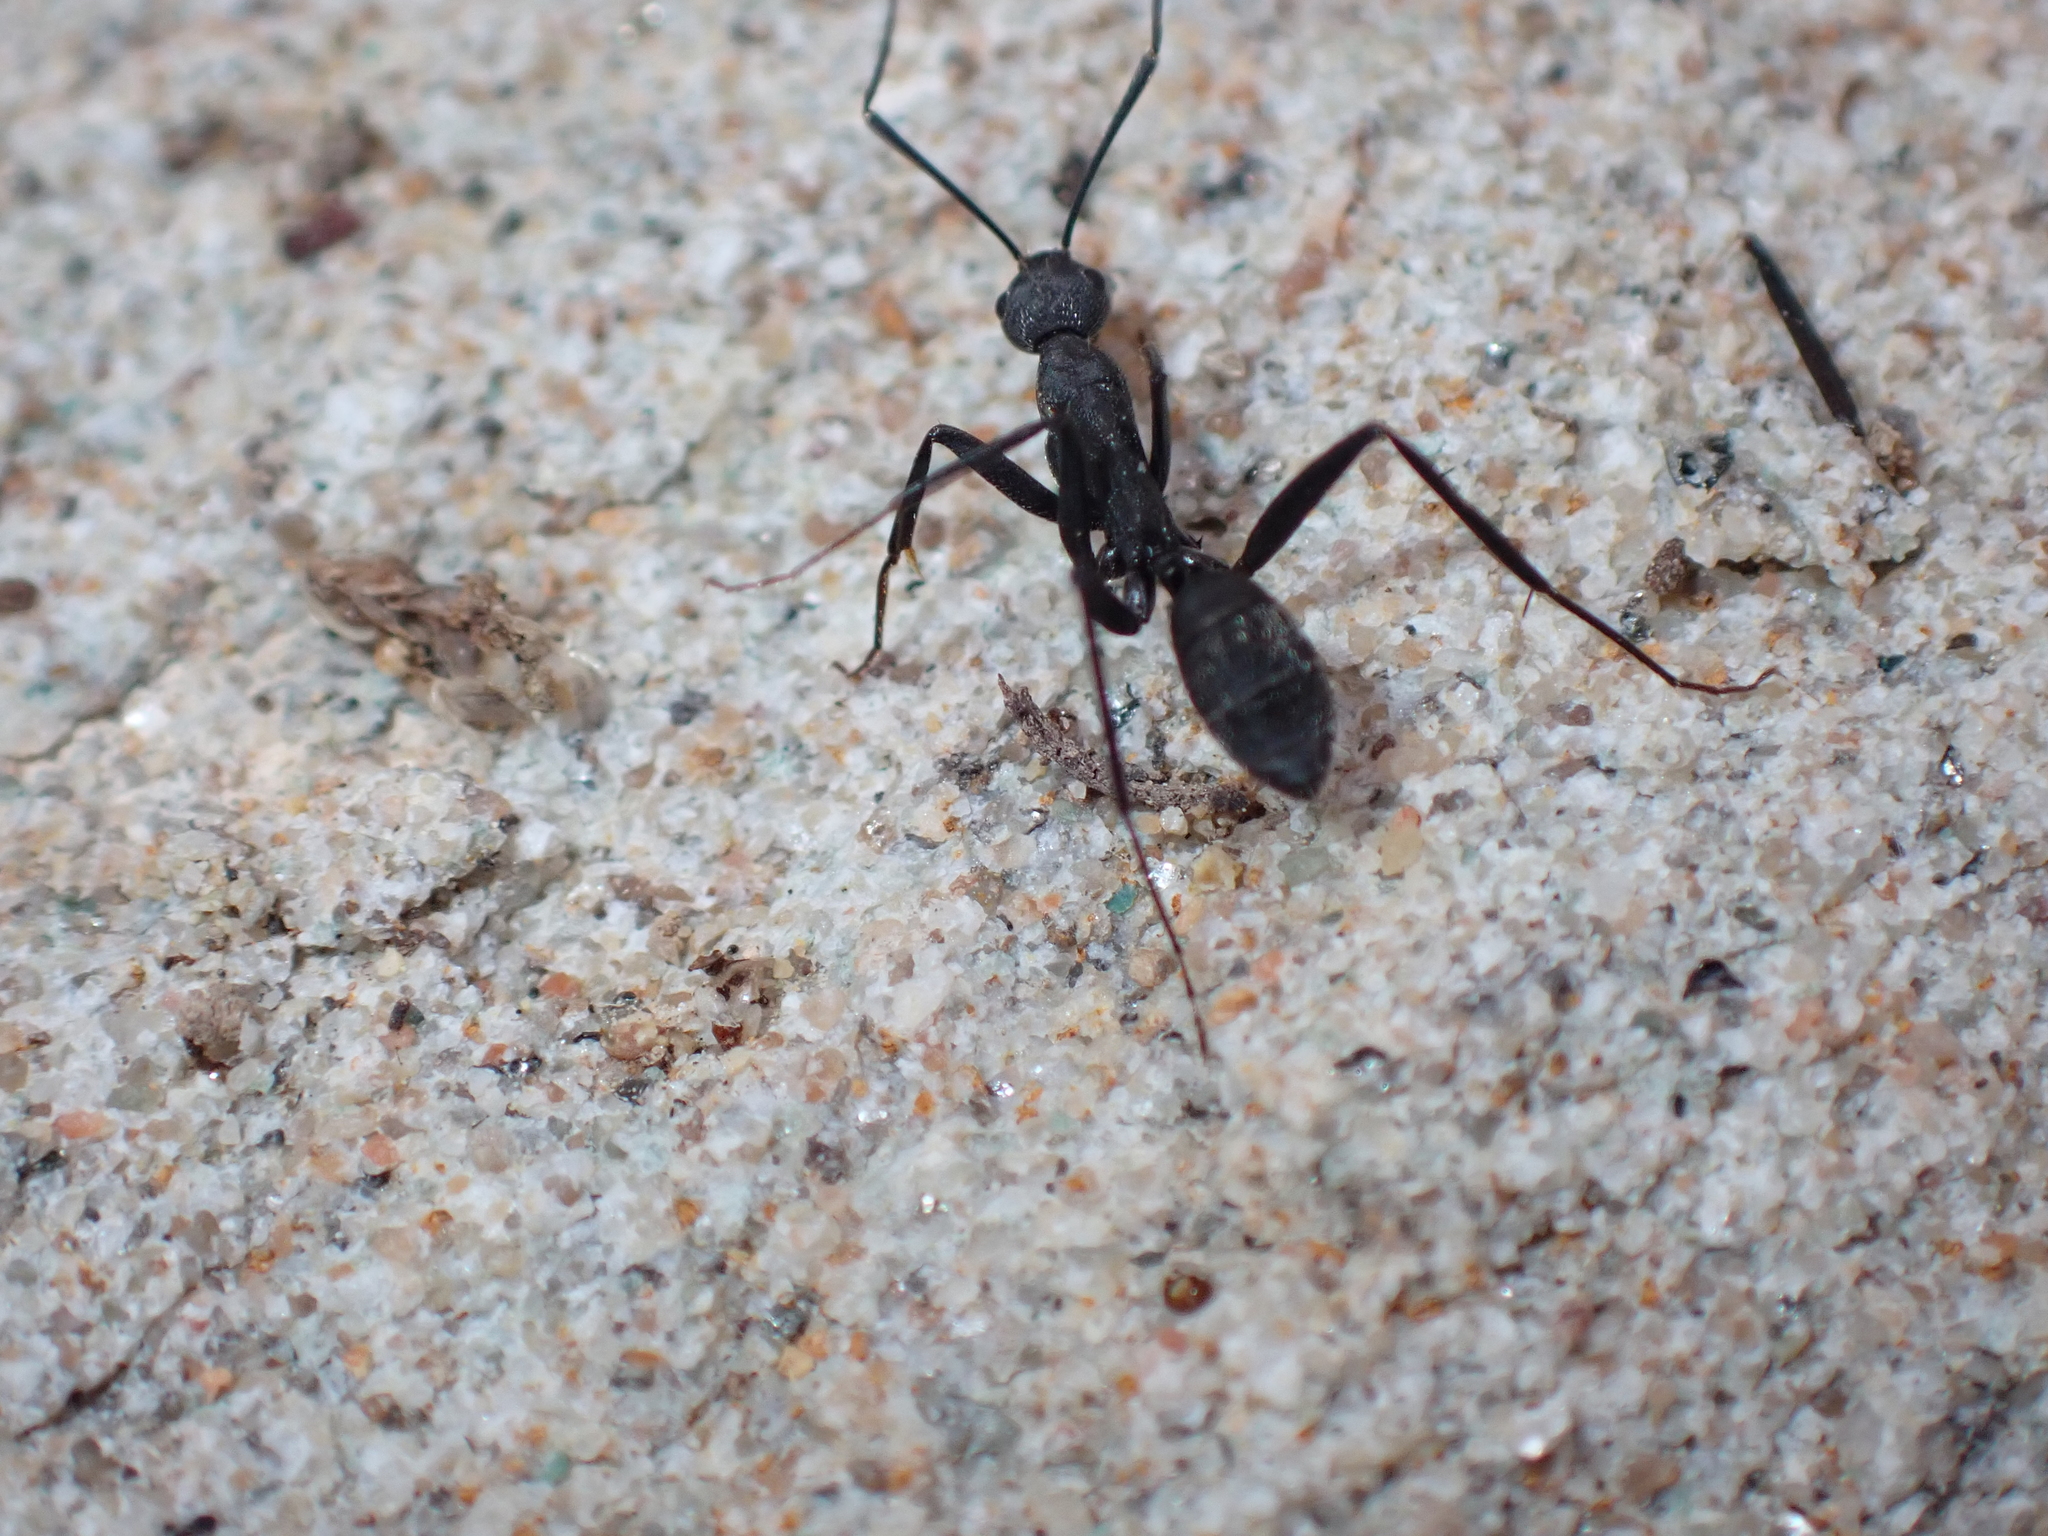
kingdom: Animalia
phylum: Arthropoda
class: Insecta
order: Hymenoptera
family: Formicidae
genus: Camponotus
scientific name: Camponotus cruentatus
